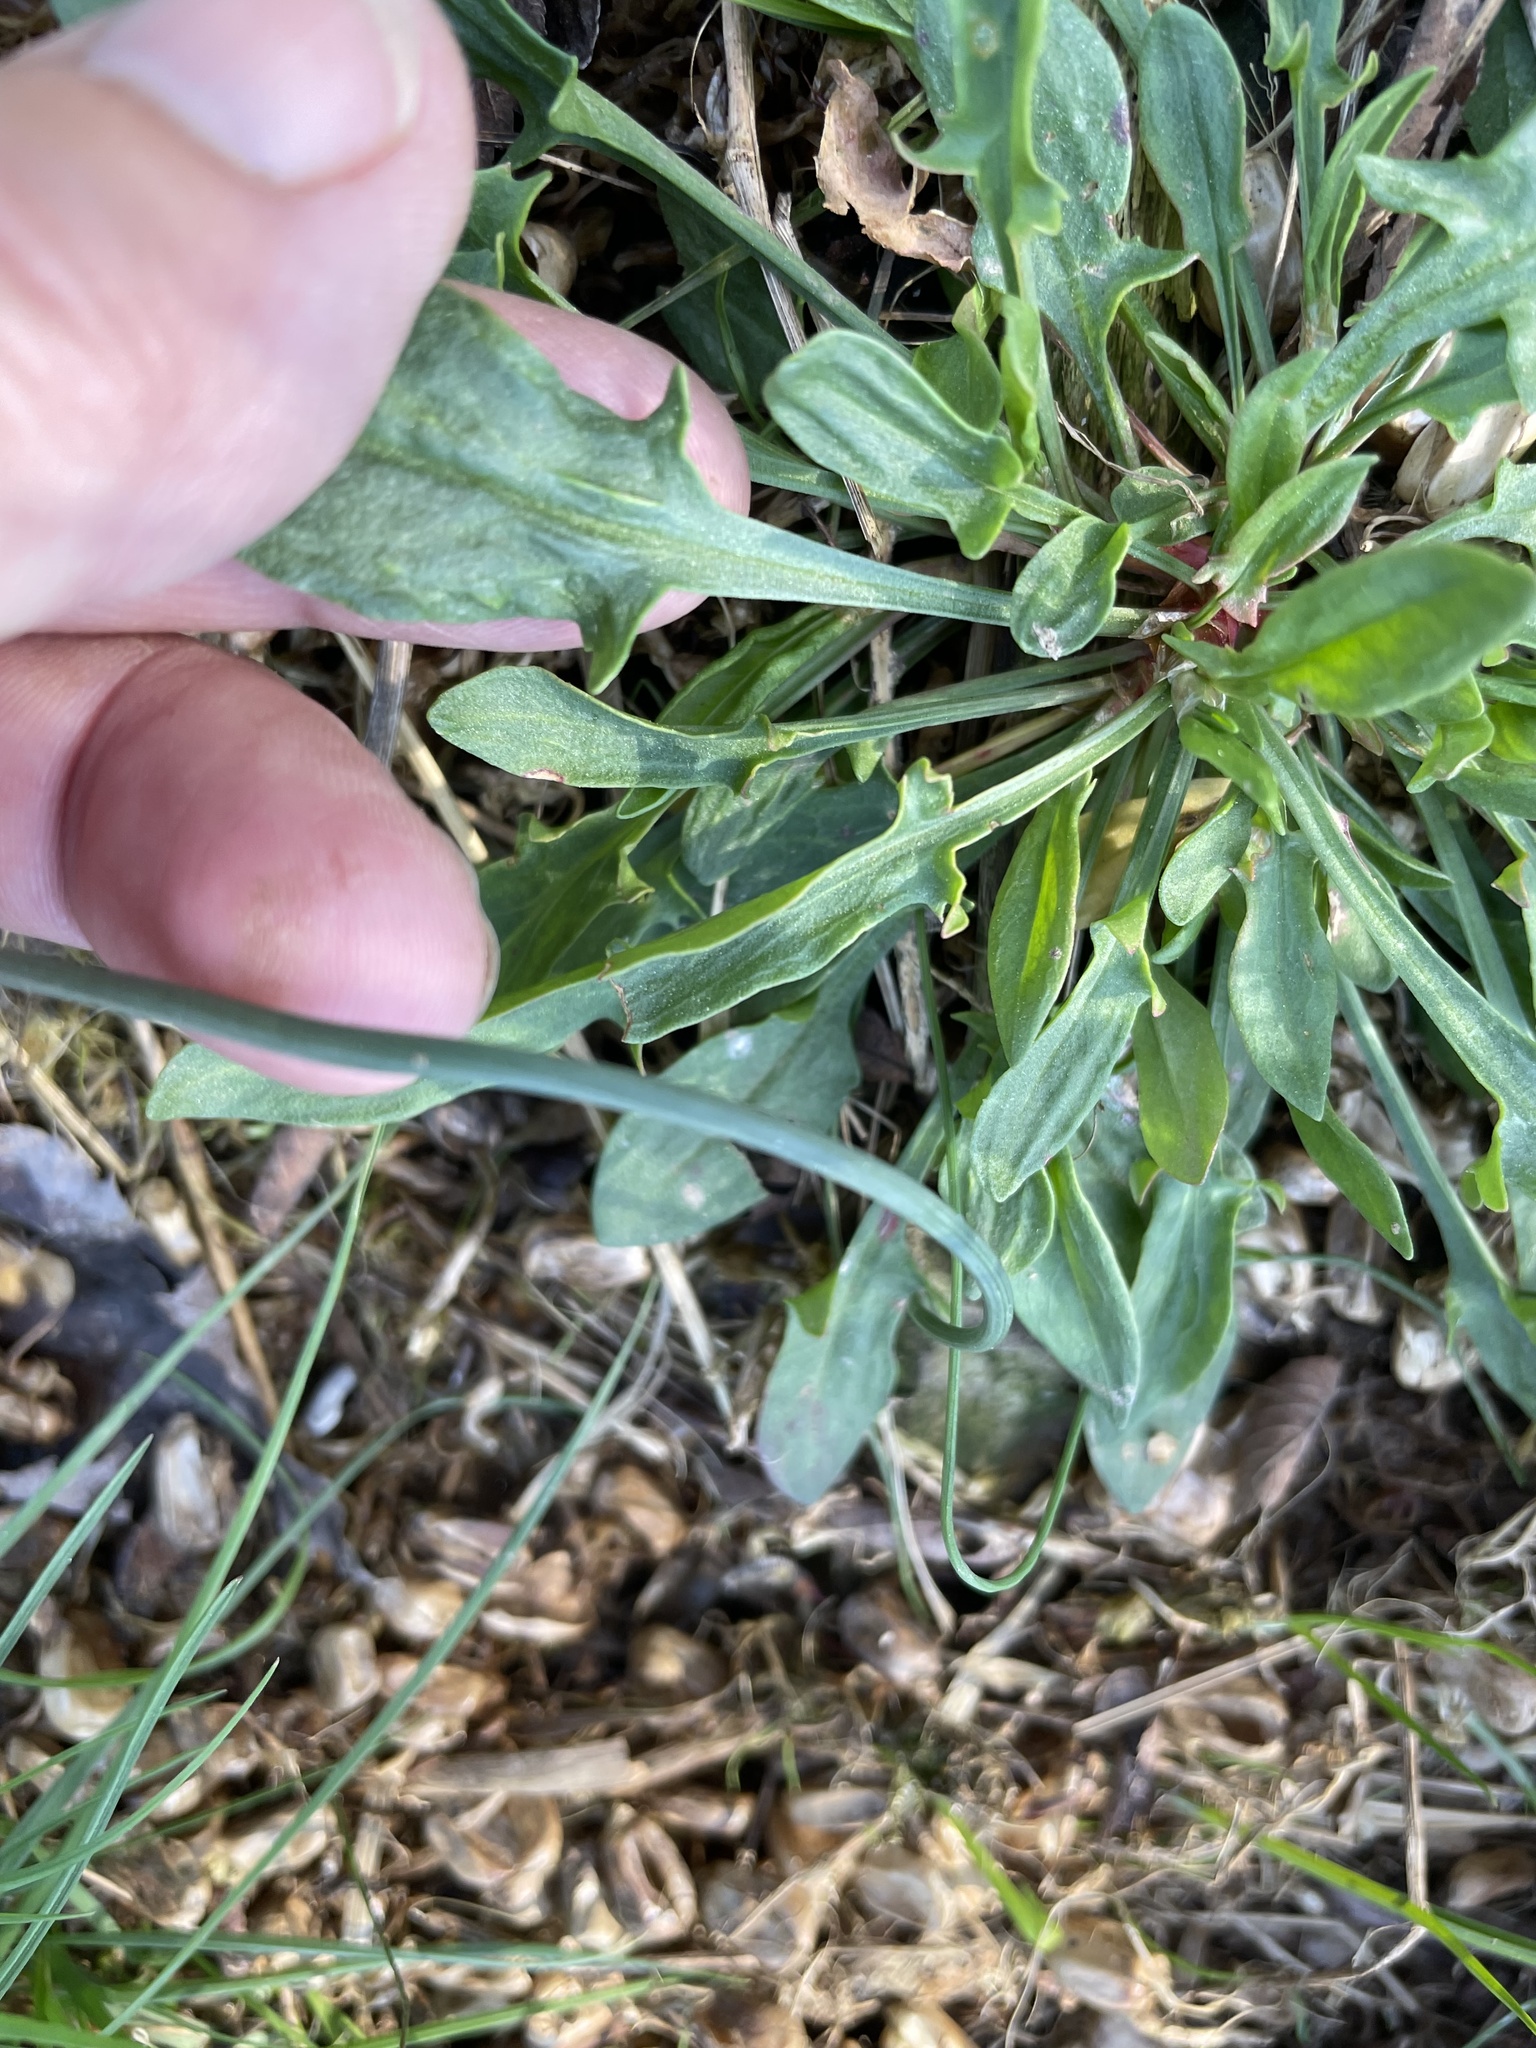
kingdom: Plantae
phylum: Tracheophyta
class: Magnoliopsida
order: Caryophyllales
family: Polygonaceae
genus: Rumex
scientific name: Rumex acetosella
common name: Common sheep sorrel
